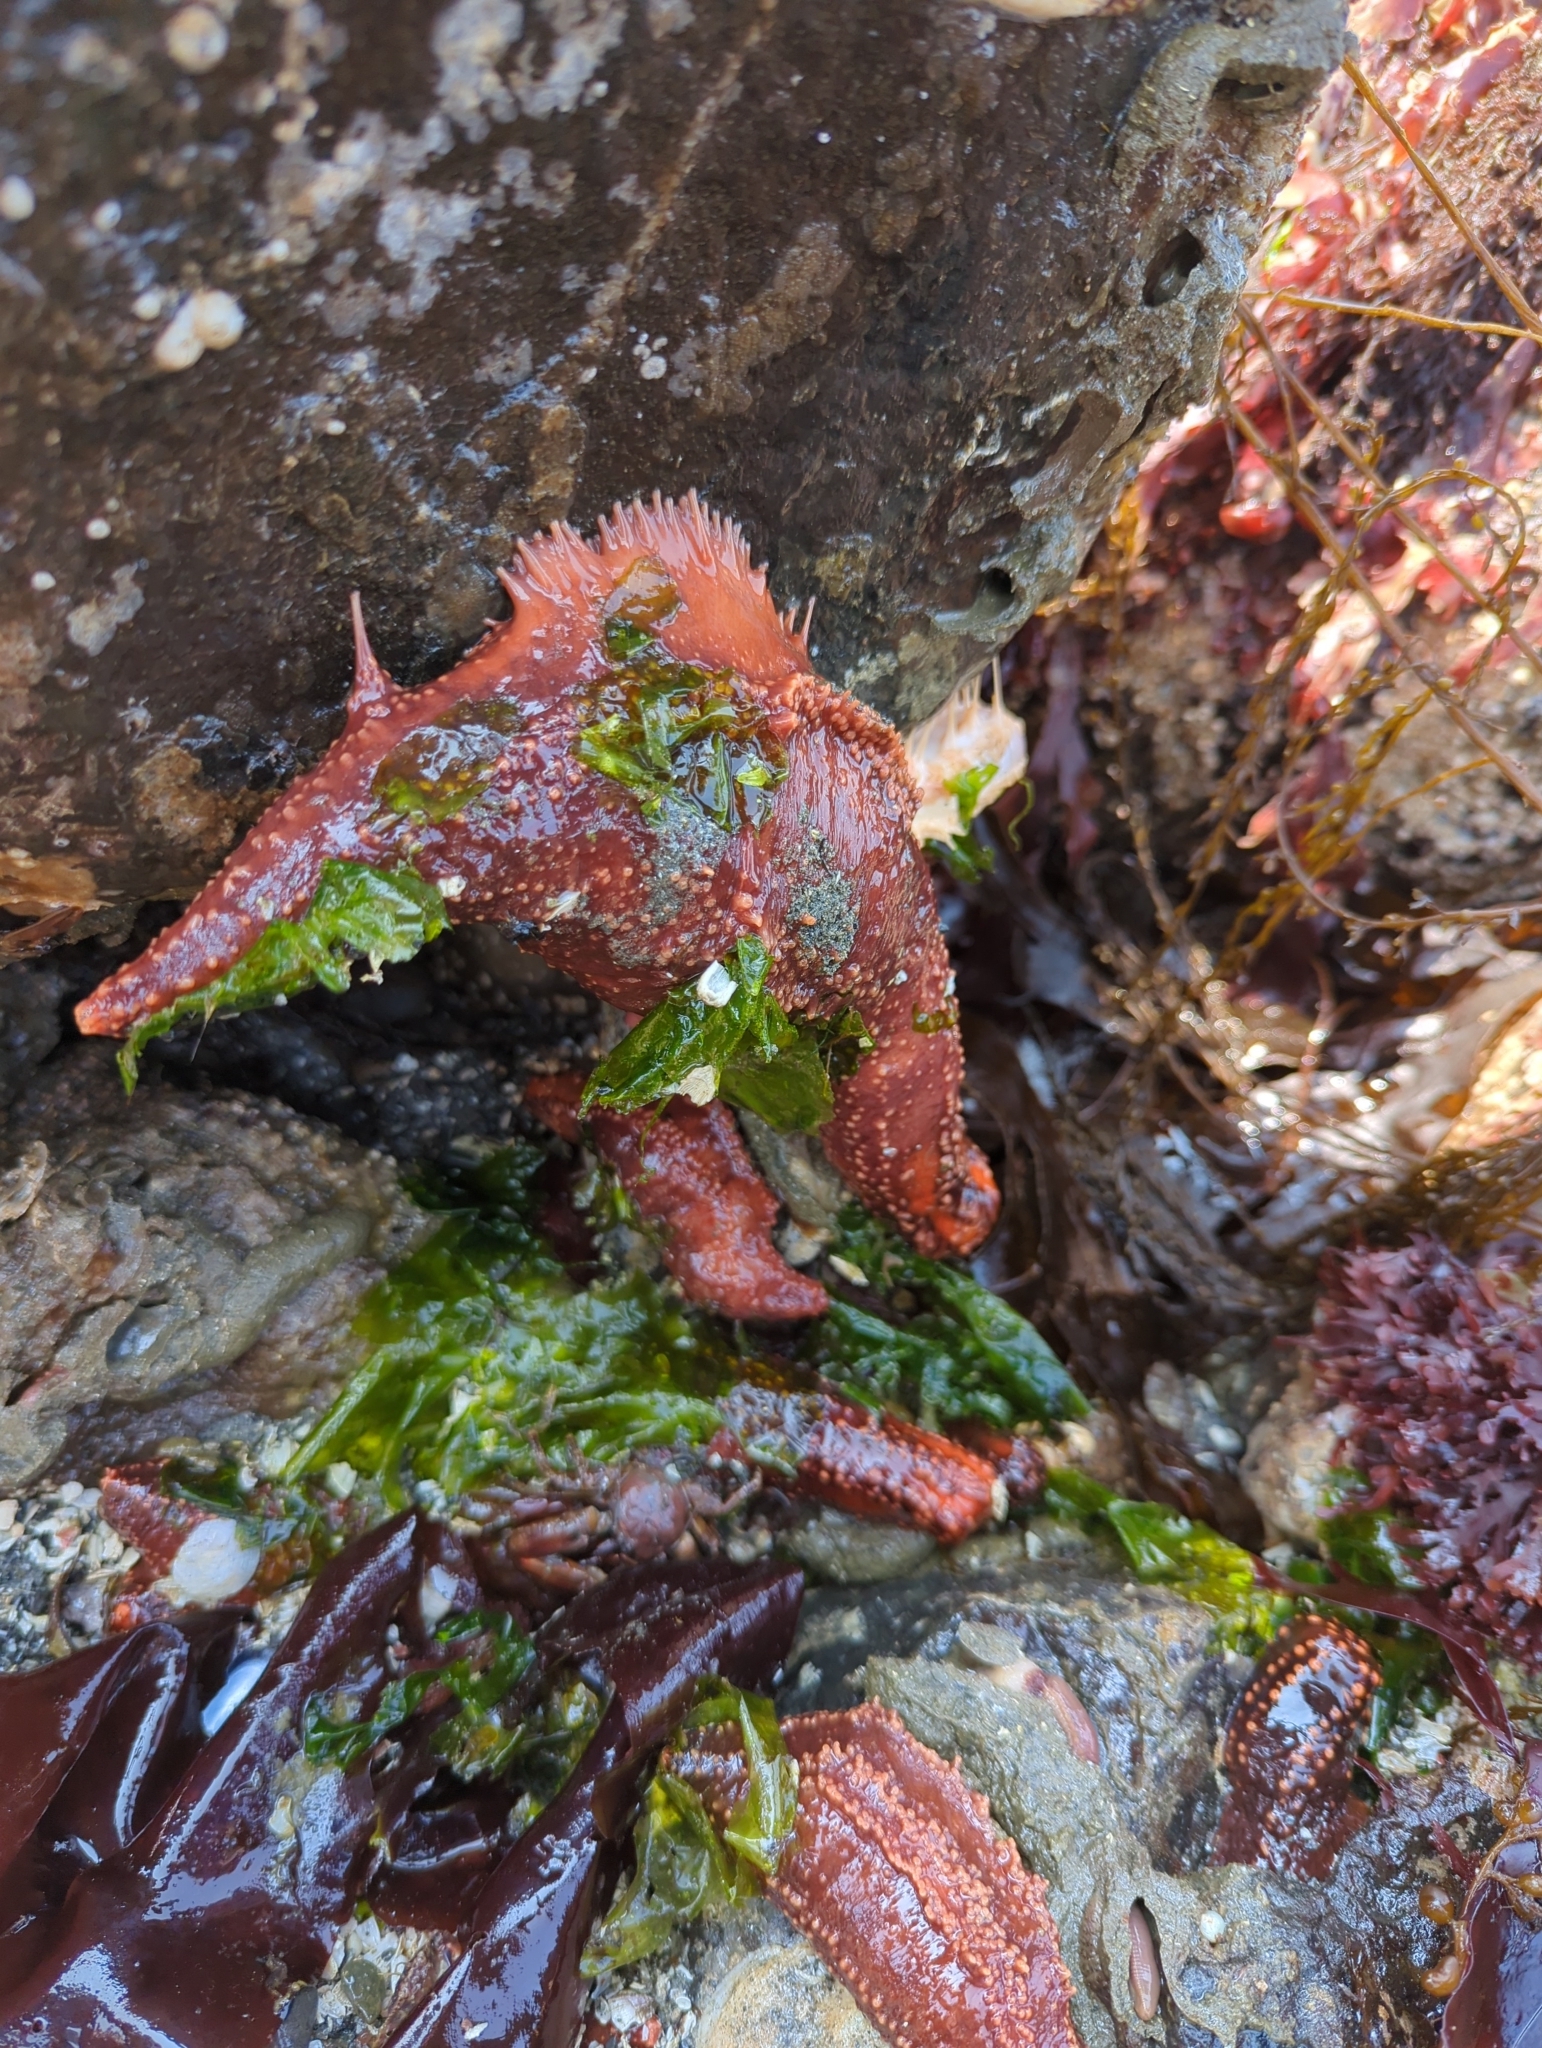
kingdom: Animalia
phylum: Echinodermata
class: Holothuroidea
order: Dendrochirotida
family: Cucumariidae
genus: Cucumaria
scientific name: Cucumaria miniata
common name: Orange sea cucumber
